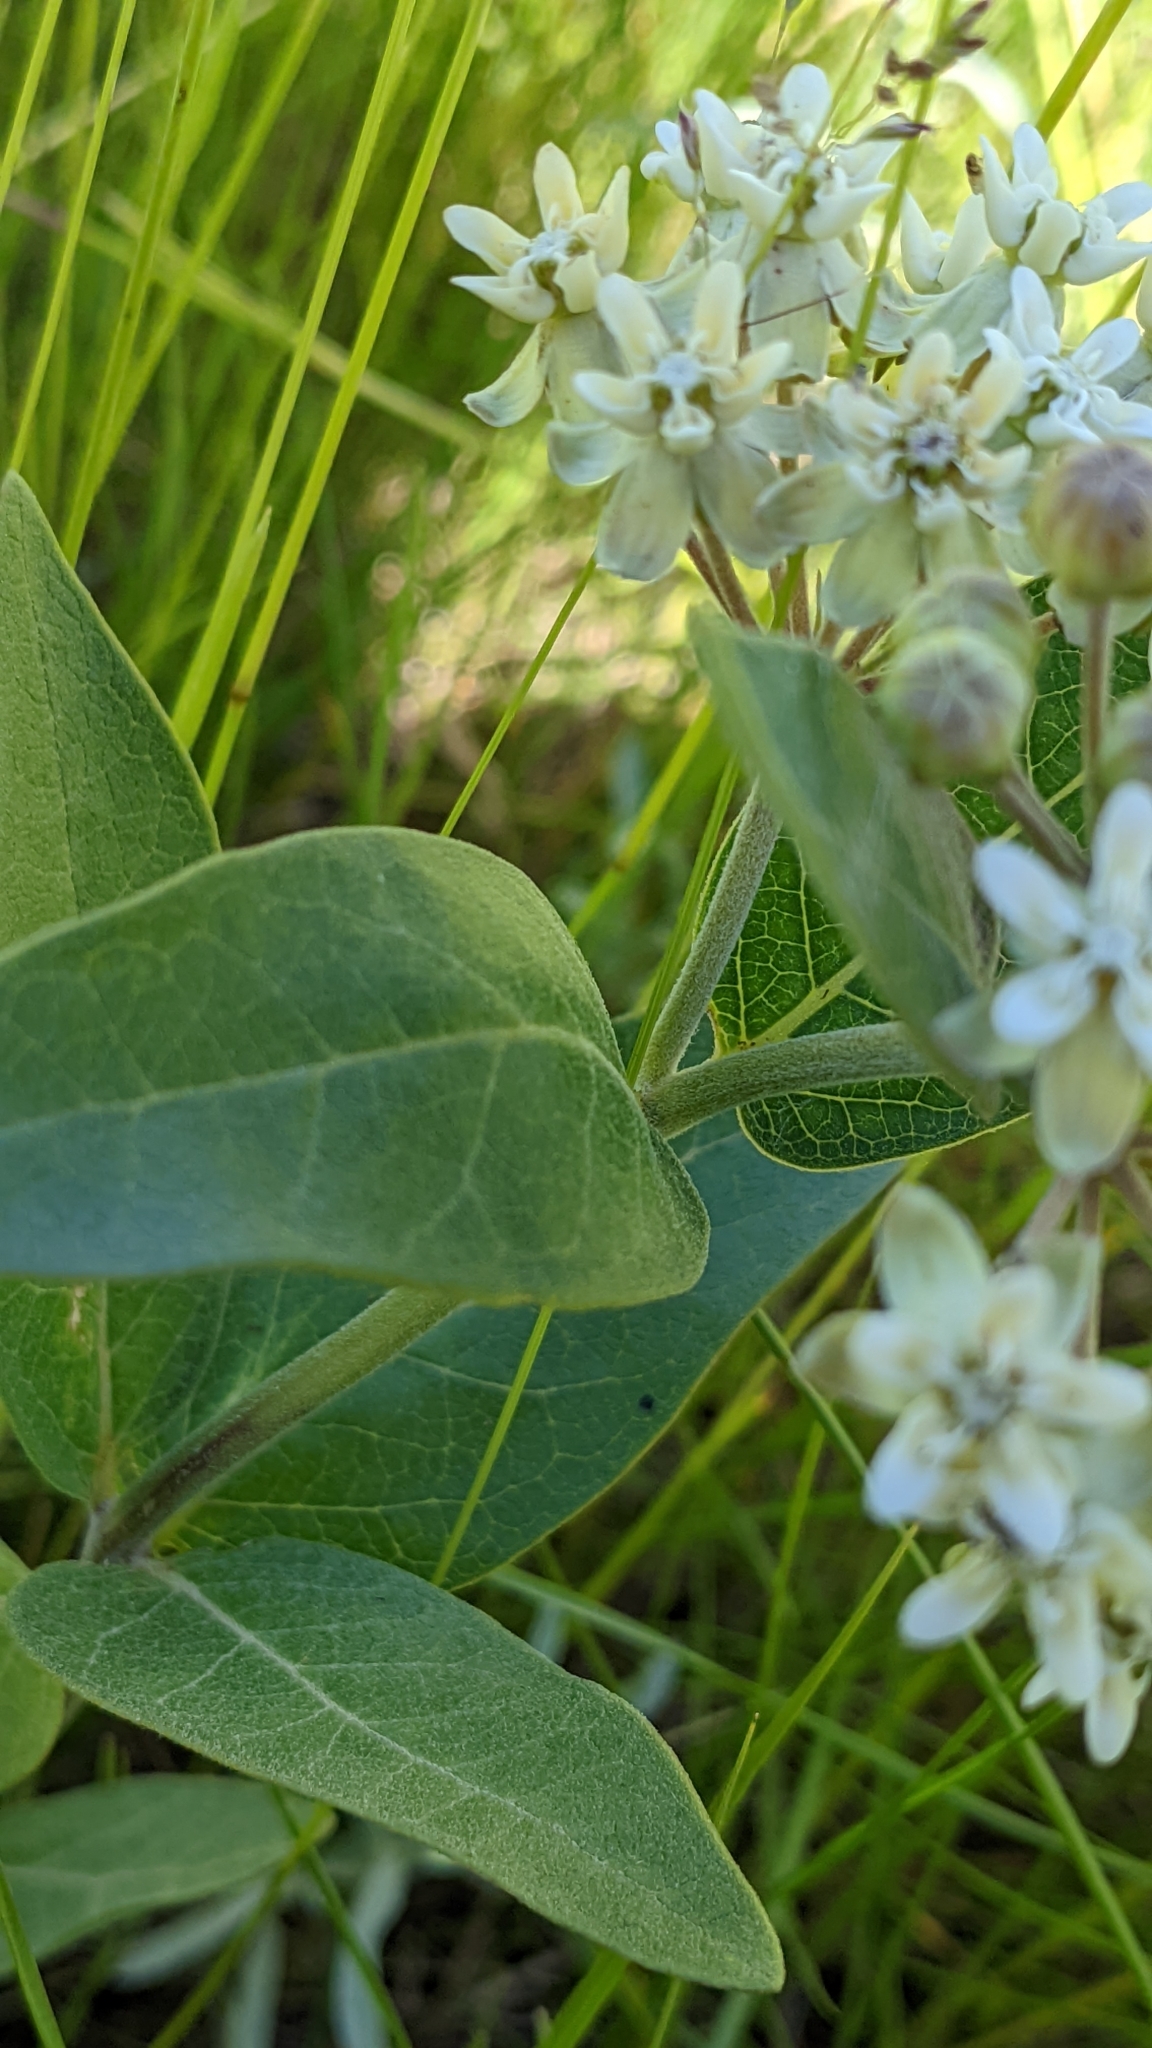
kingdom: Plantae
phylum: Tracheophyta
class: Magnoliopsida
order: Gentianales
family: Apocynaceae
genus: Asclepias
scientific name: Asclepias ovalifolia
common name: Dwarf milkweed
